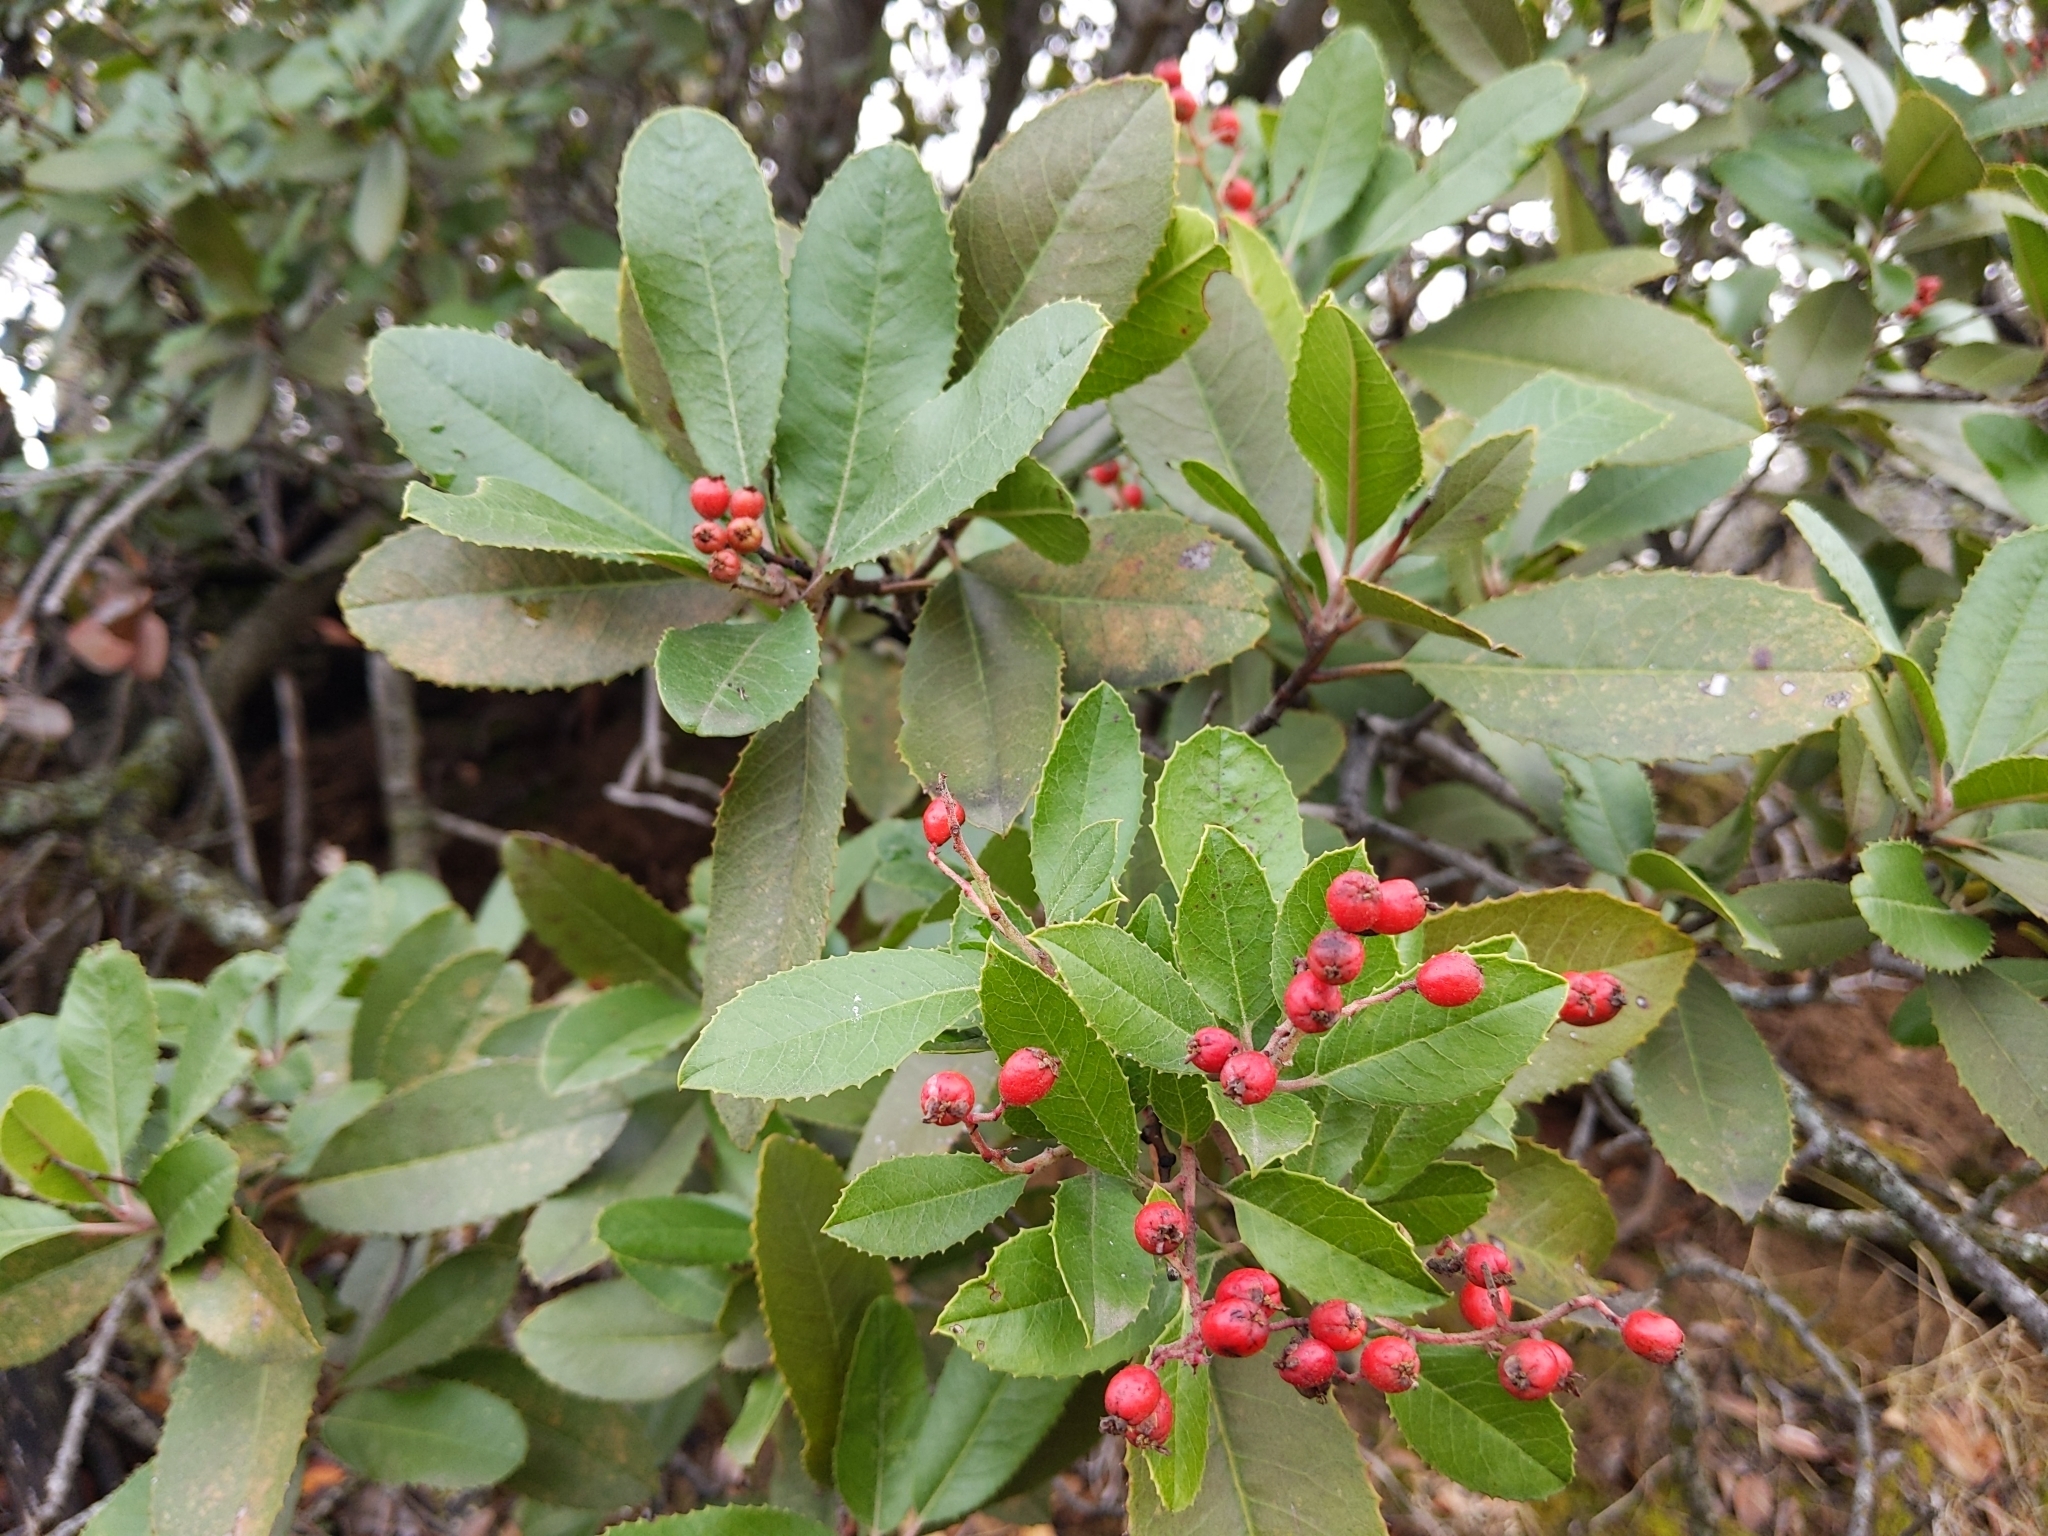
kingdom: Plantae
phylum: Tracheophyta
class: Magnoliopsida
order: Rosales
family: Rosaceae
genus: Heteromeles
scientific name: Heteromeles arbutifolia
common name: California-holly
